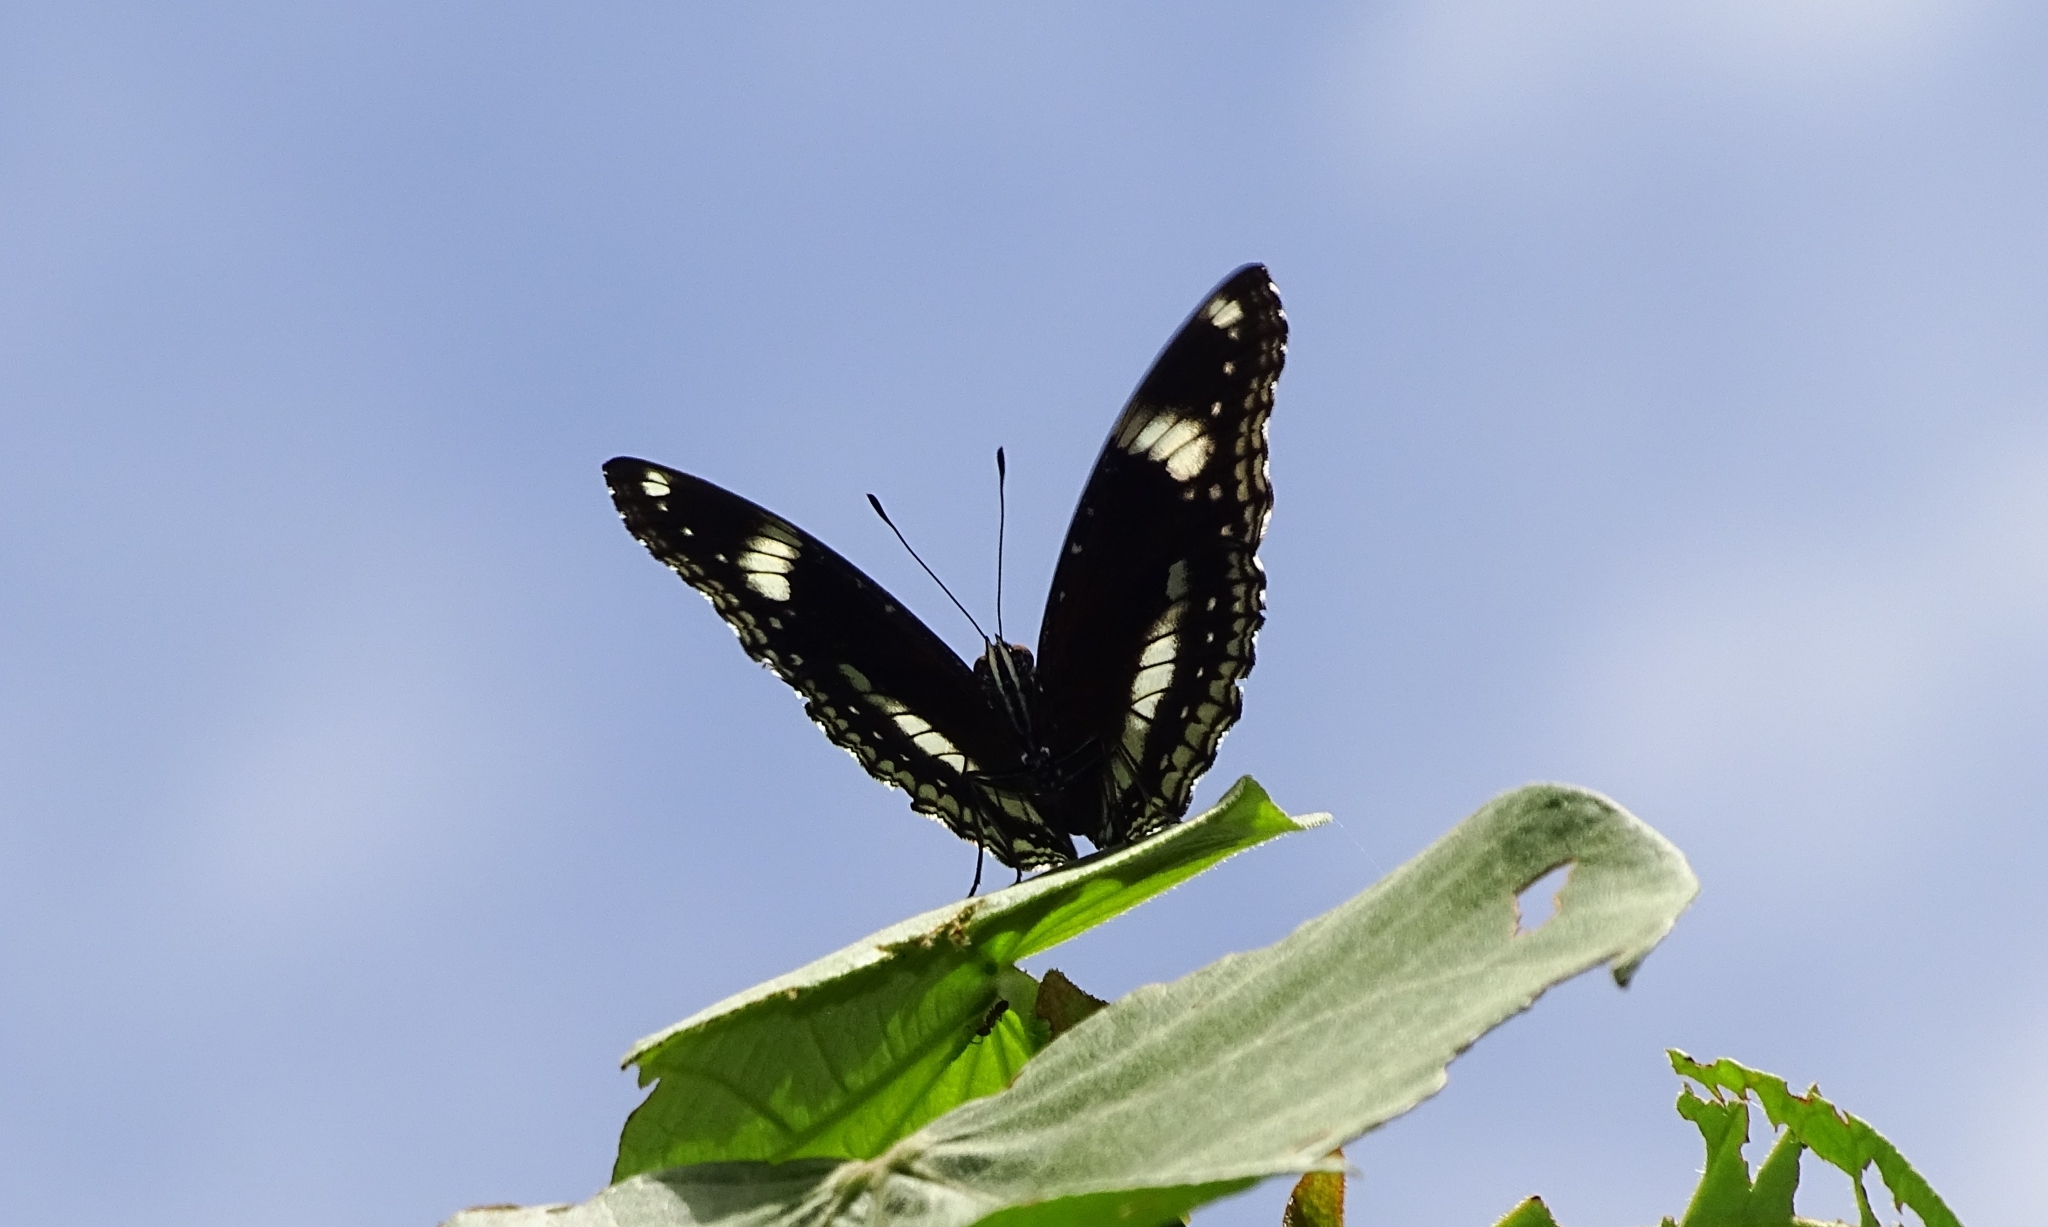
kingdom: Animalia
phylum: Arthropoda
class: Insecta
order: Lepidoptera
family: Nymphalidae
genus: Hypolimnas
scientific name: Hypolimnas bolina
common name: Great eggfly
